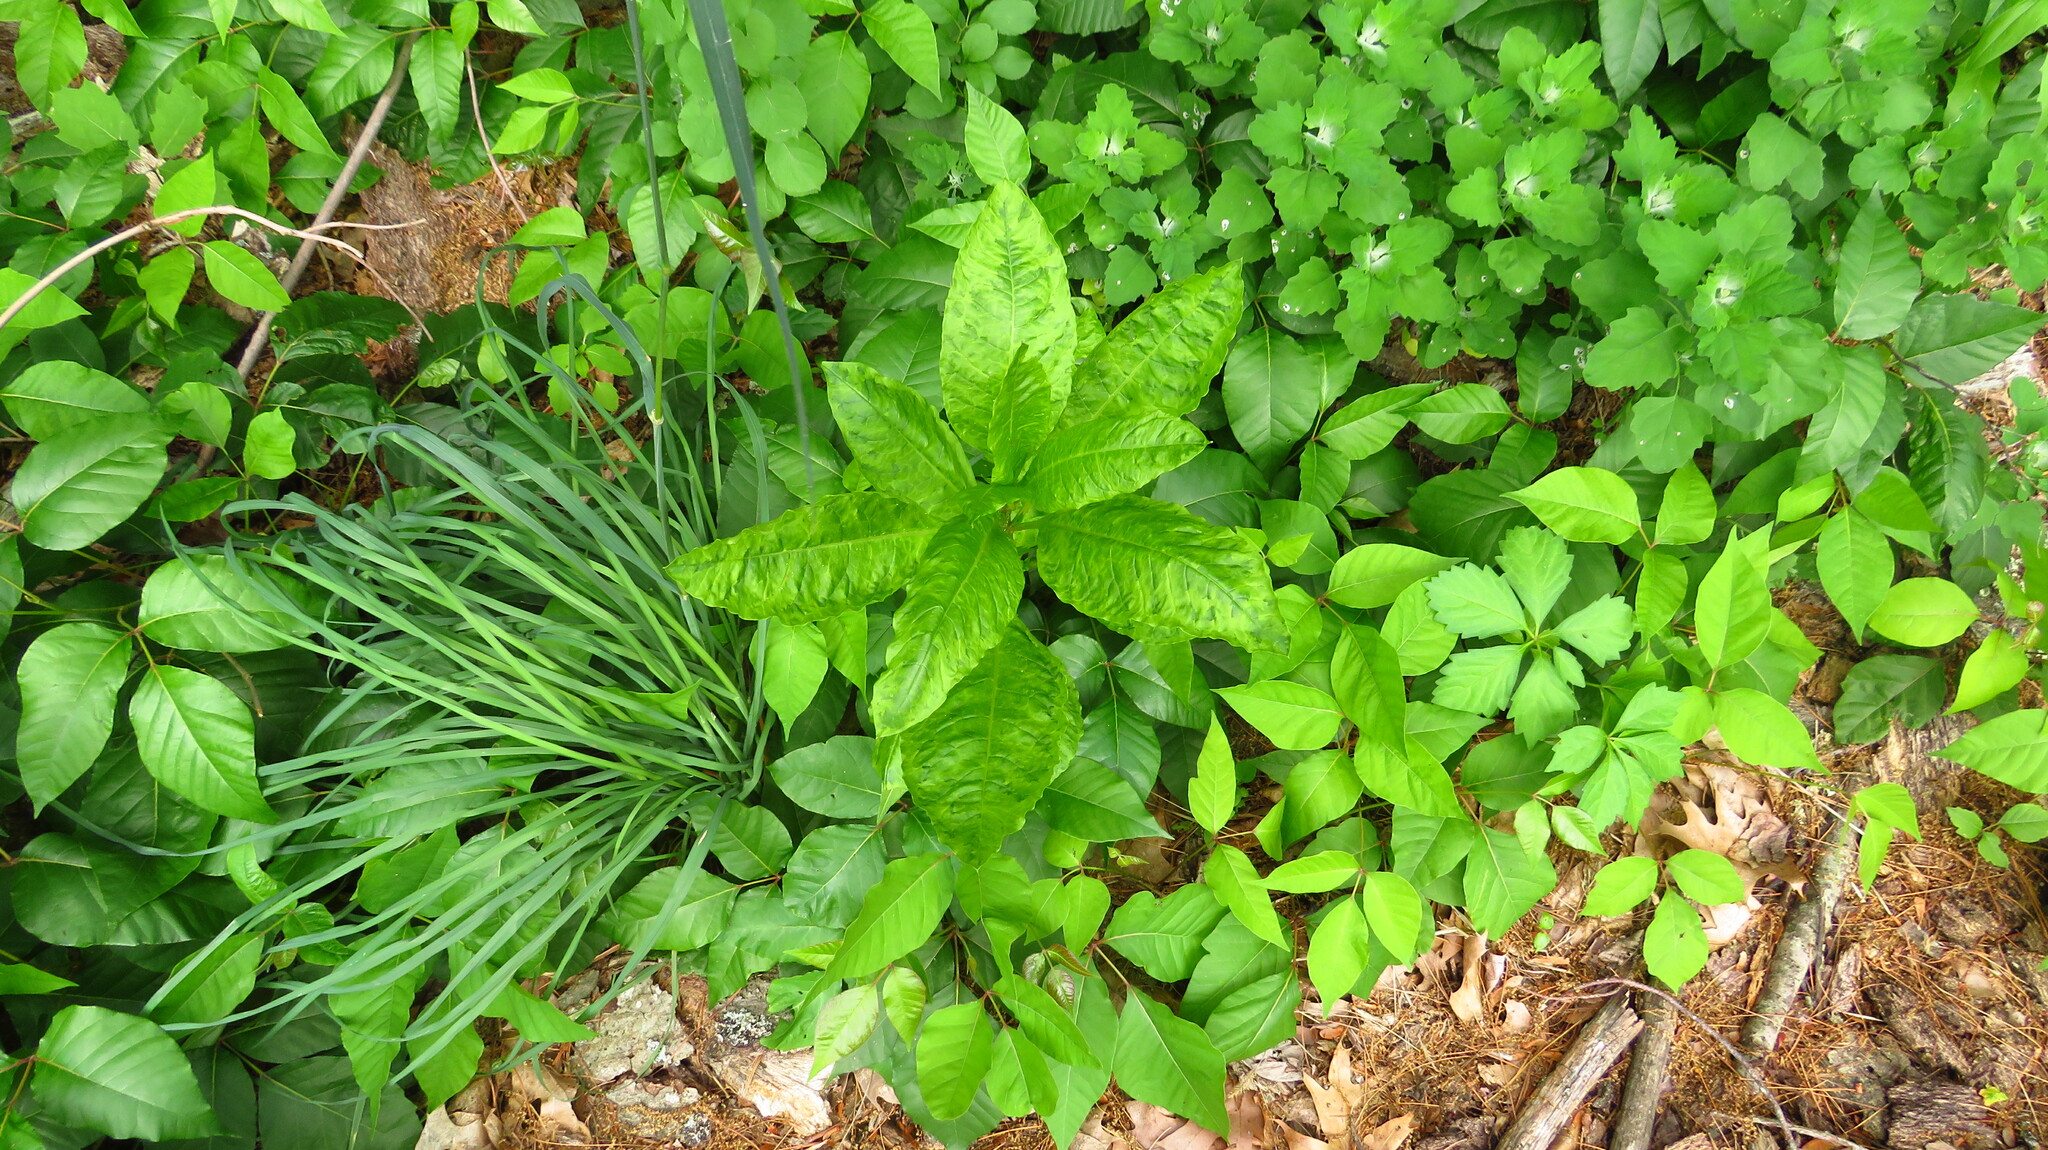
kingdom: Plantae
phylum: Tracheophyta
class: Magnoliopsida
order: Caryophyllales
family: Phytolaccaceae
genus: Phytolacca
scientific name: Phytolacca americana
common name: American pokeweed
